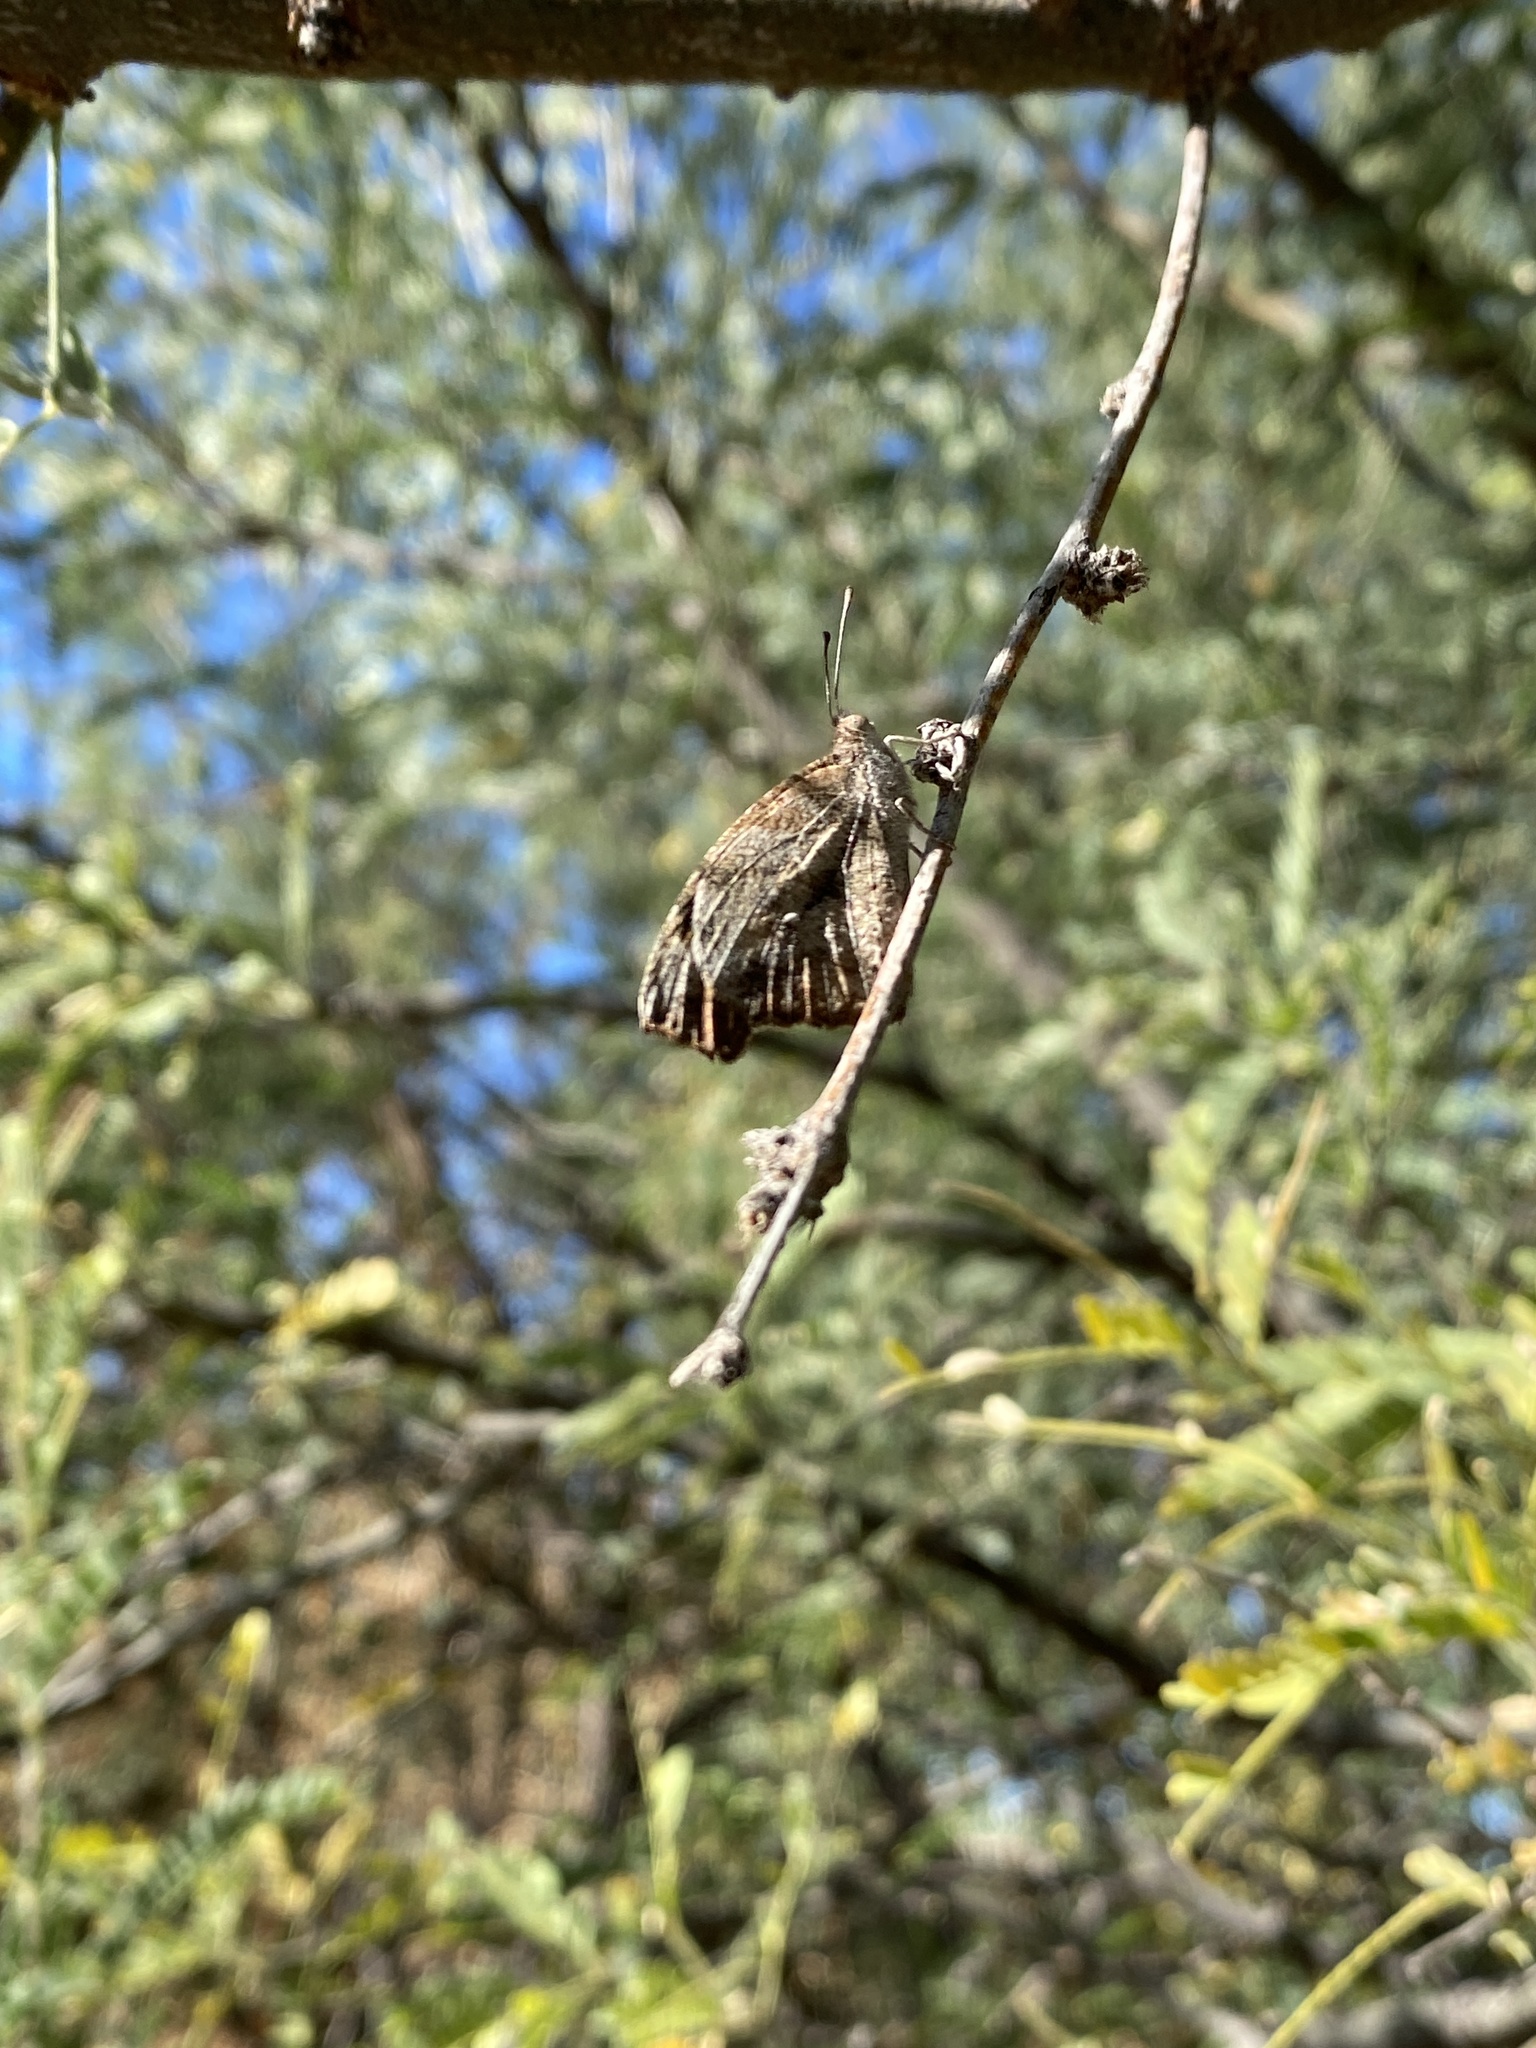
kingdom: Animalia
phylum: Arthropoda
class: Insecta
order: Lepidoptera
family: Nymphalidae
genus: Libytheana
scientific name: Libytheana carinenta
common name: American snout
